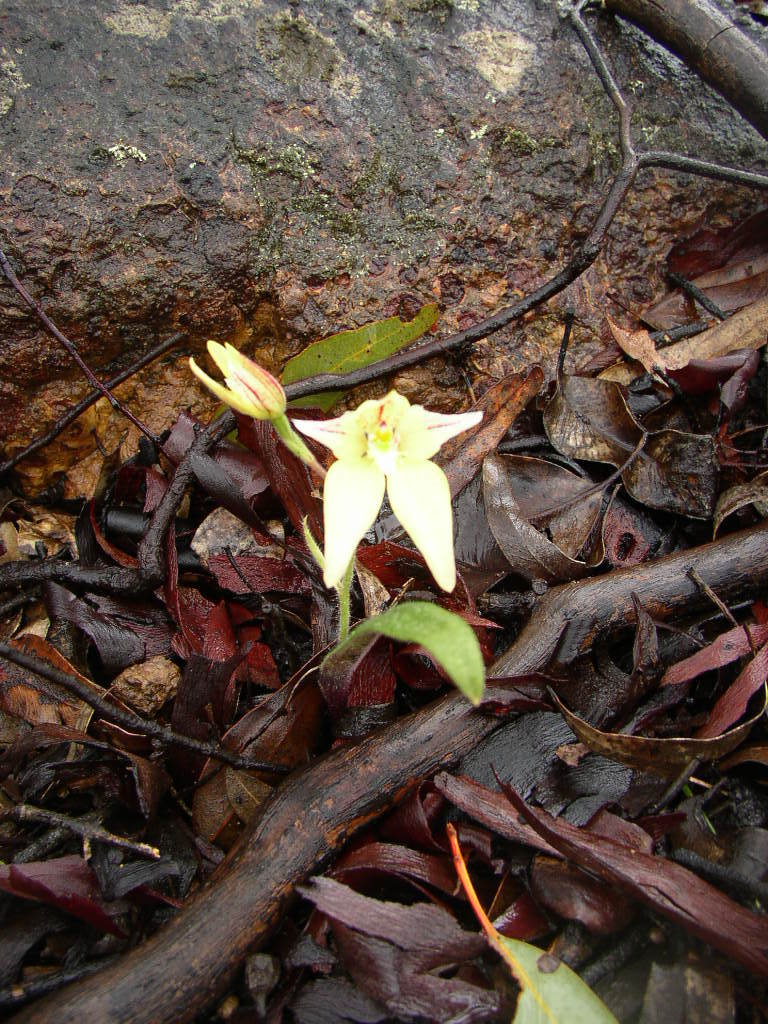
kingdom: Plantae
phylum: Tracheophyta
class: Liliopsida
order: Asparagales
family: Orchidaceae
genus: Caladenia
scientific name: Caladenia flava
